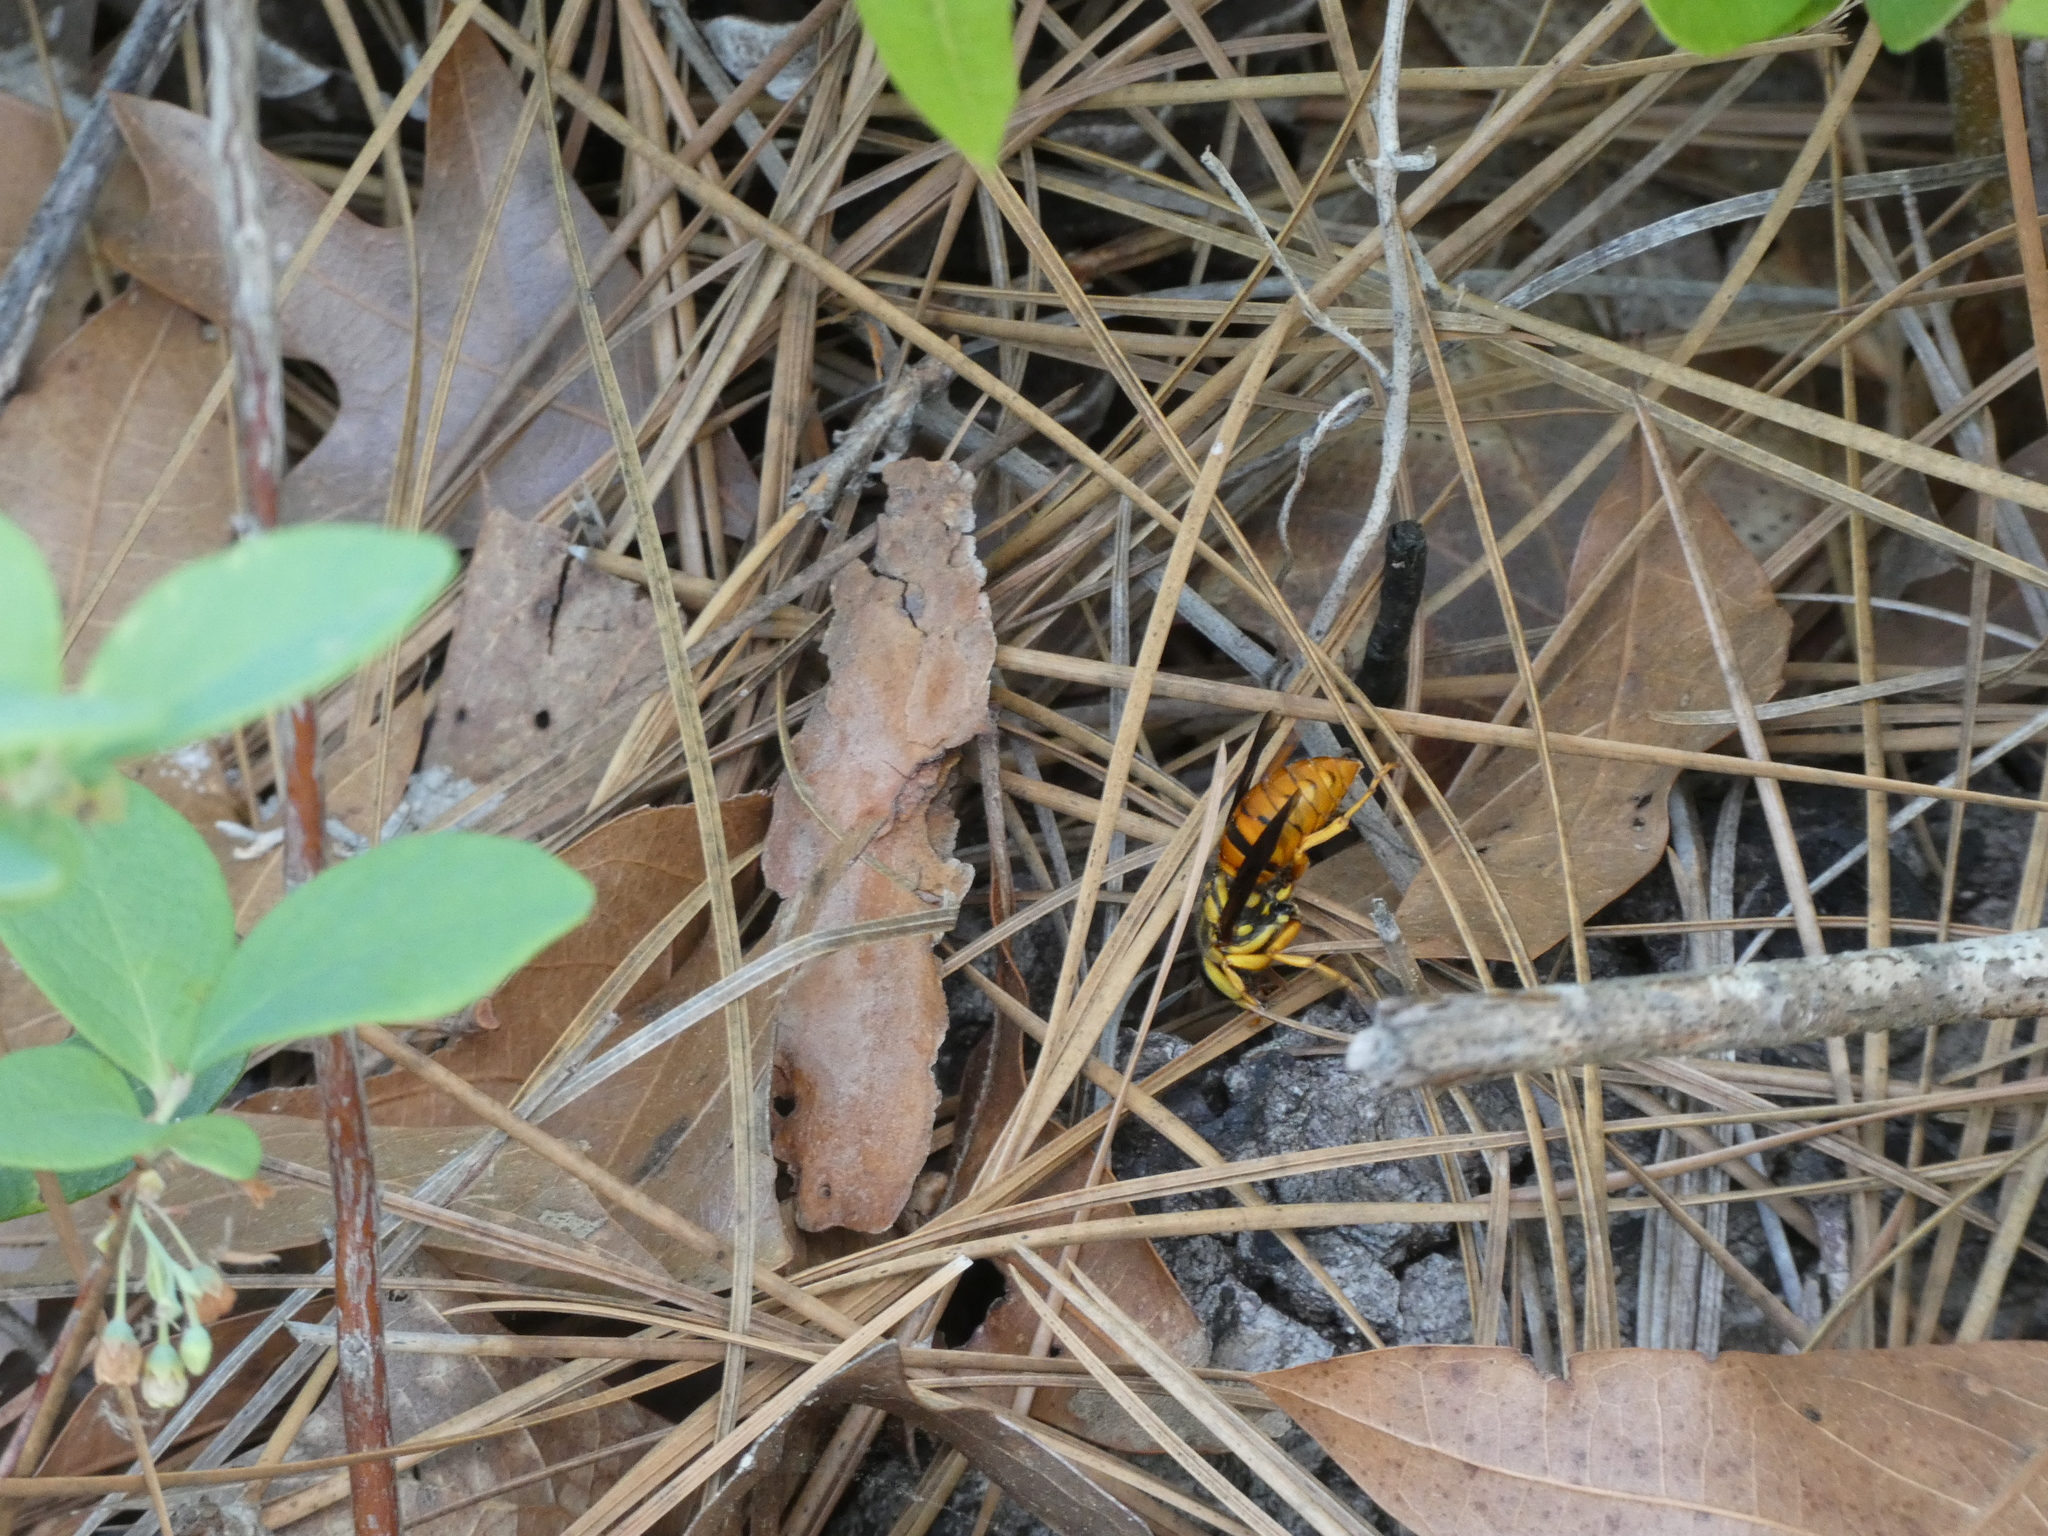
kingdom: Animalia
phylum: Arthropoda
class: Insecta
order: Hymenoptera
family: Vespidae
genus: Vespula
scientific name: Vespula squamosa
